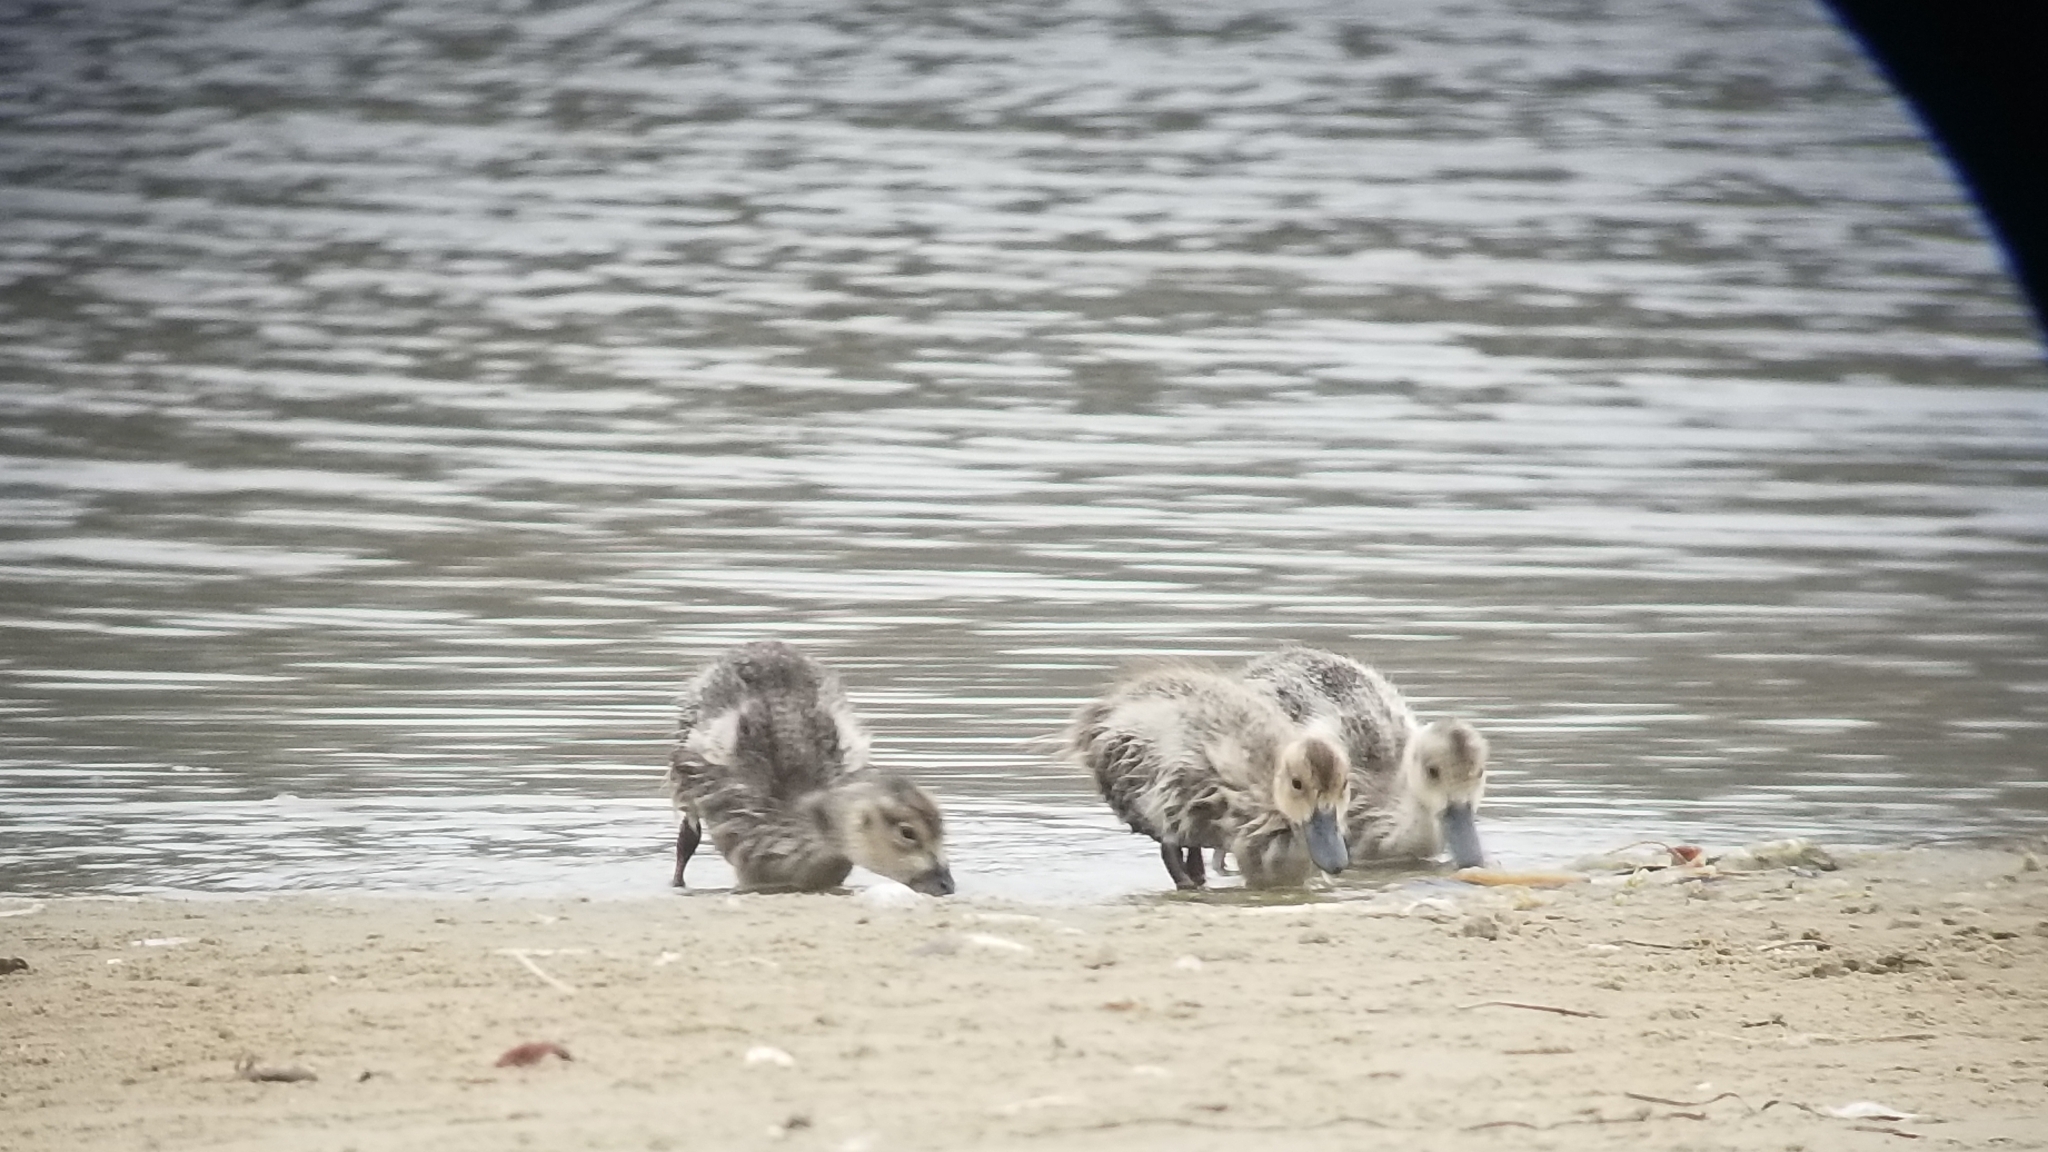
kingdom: Animalia
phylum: Chordata
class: Aves
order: Anseriformes
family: Anatidae
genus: Anas
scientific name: Anas platyrhynchos
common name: Mallard
